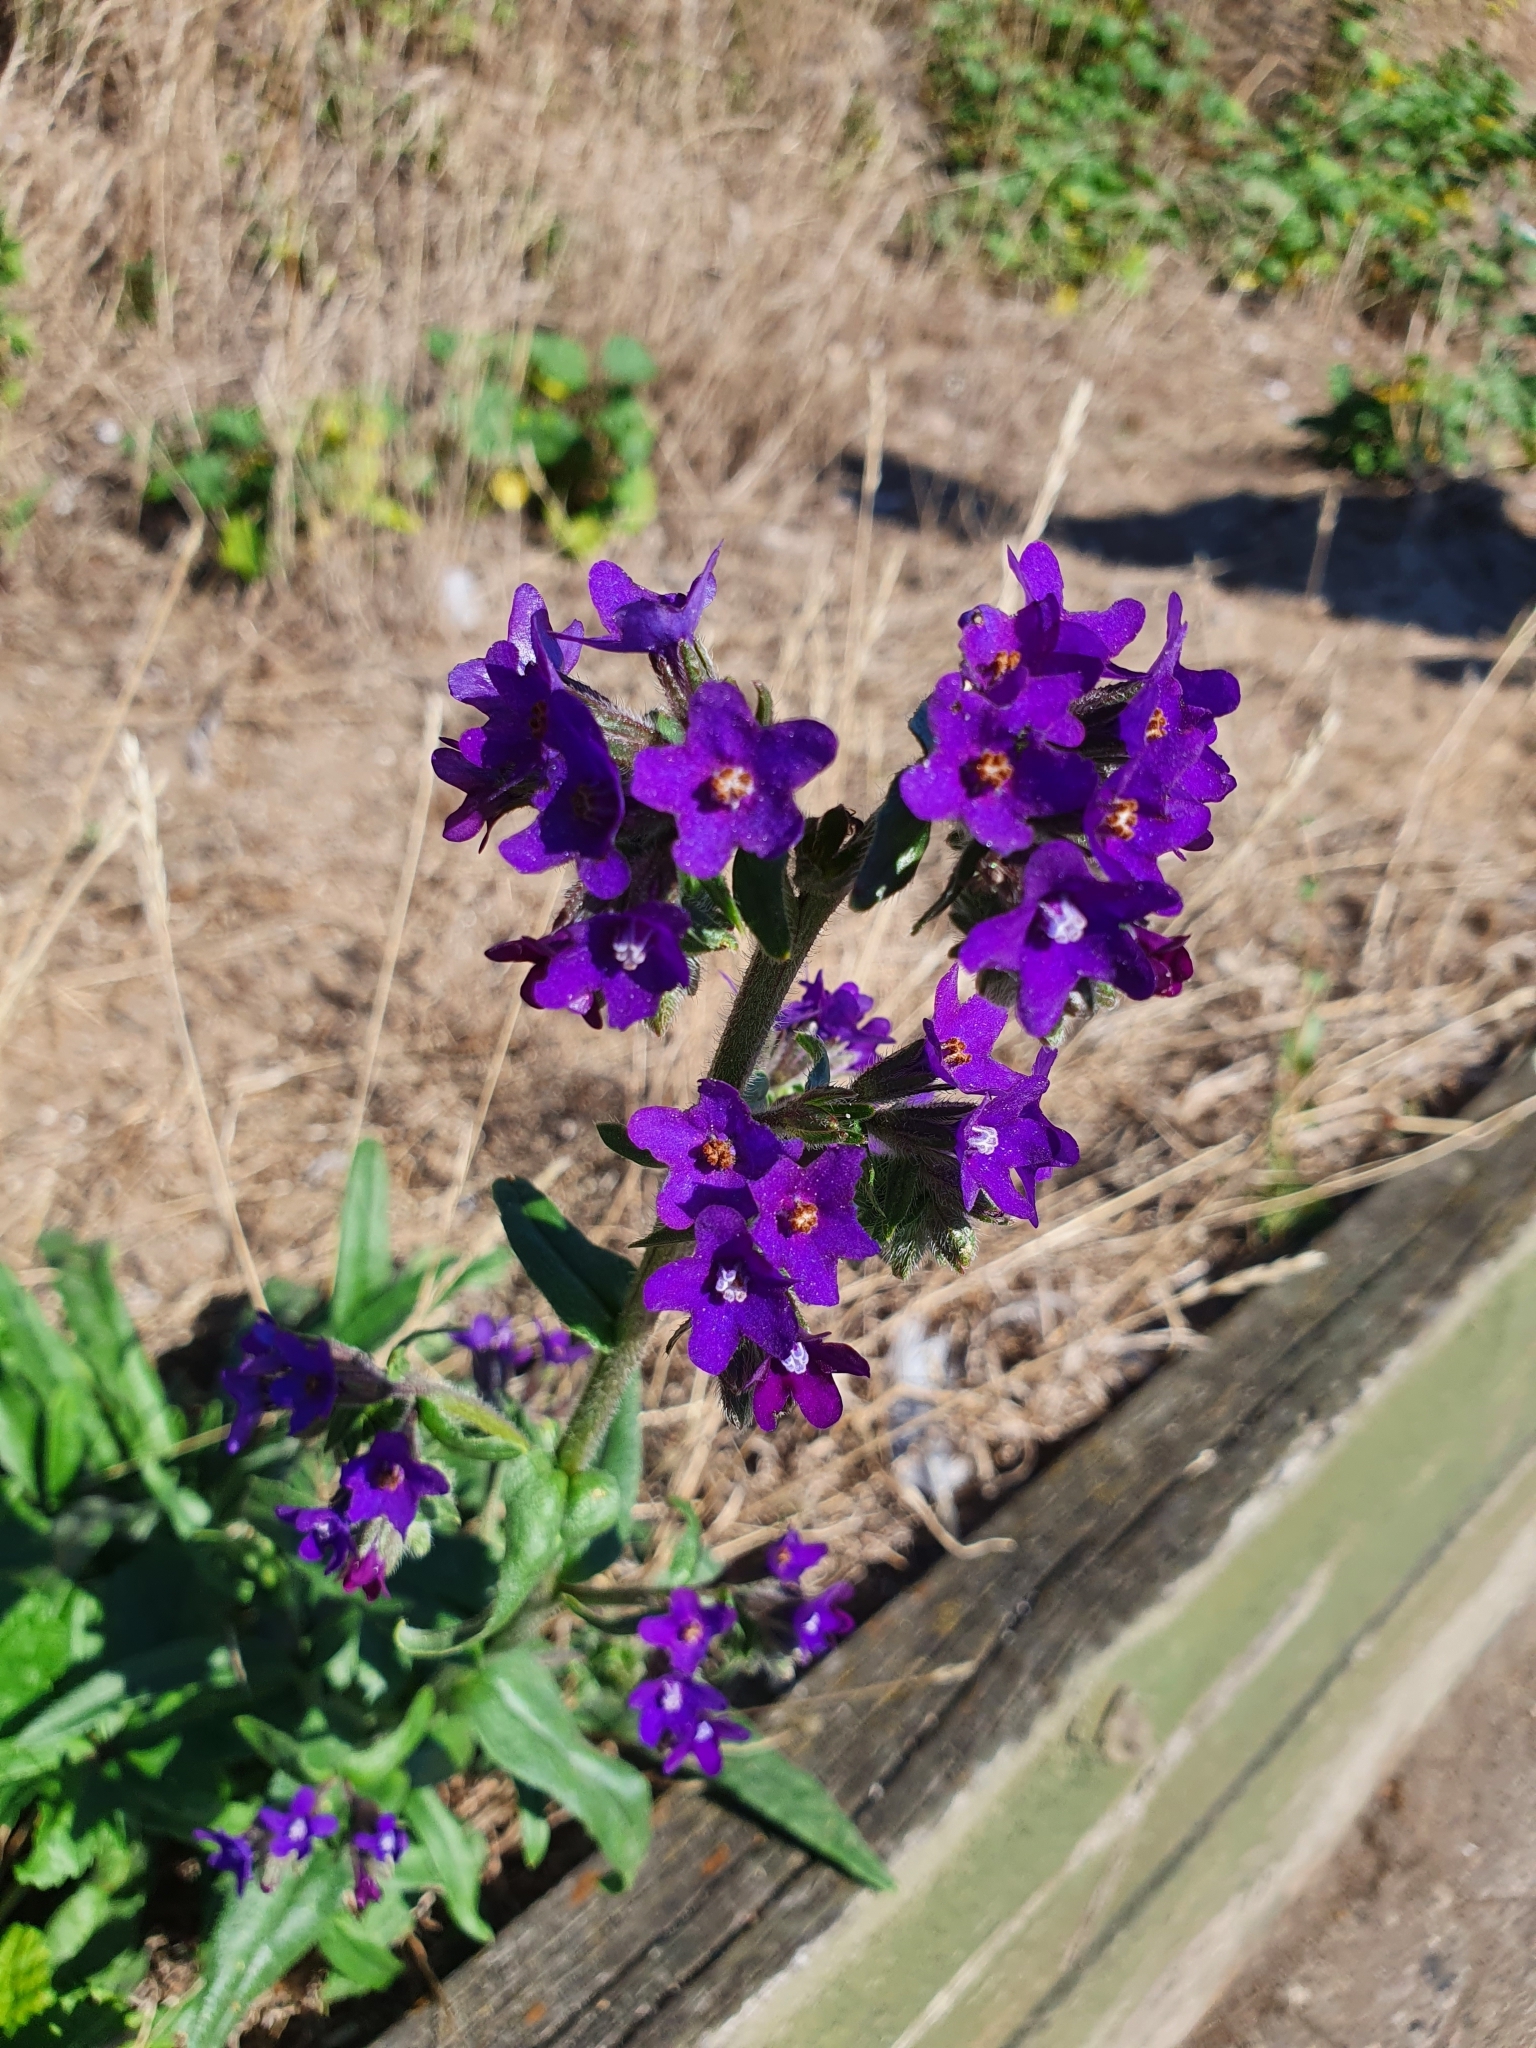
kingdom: Plantae
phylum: Tracheophyta
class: Magnoliopsida
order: Boraginales
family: Boraginaceae
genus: Anchusa
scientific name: Anchusa officinalis
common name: Alkanet
